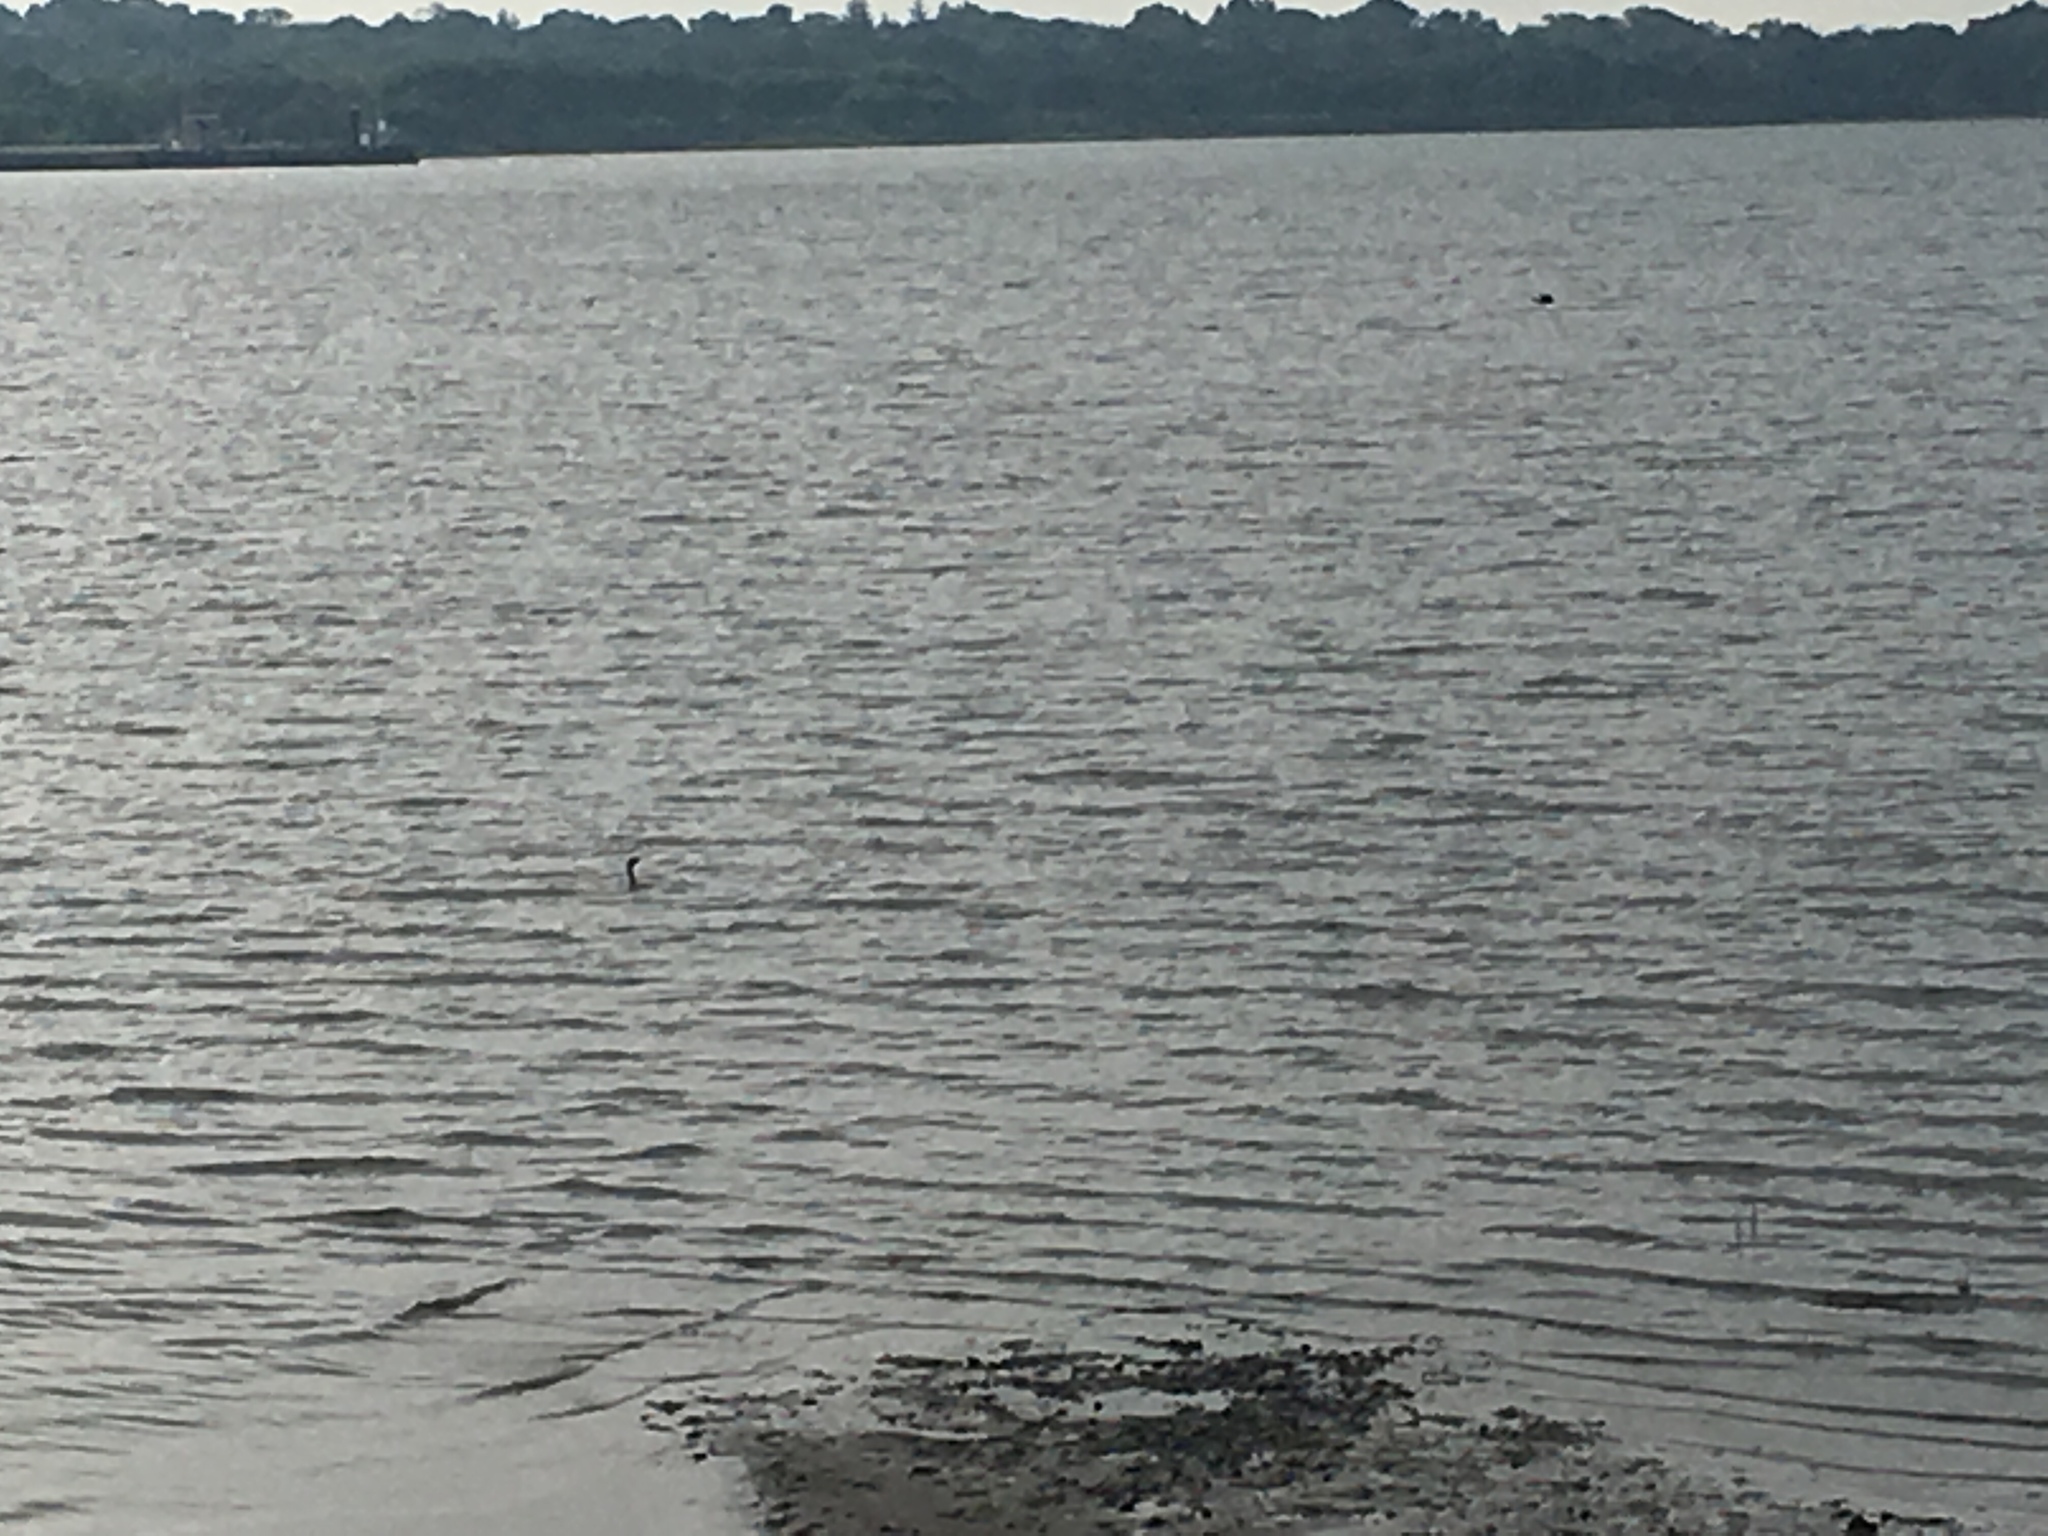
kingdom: Animalia
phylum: Chordata
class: Aves
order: Suliformes
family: Phalacrocoracidae
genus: Phalacrocorax
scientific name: Phalacrocorax auritus
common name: Double-crested cormorant
